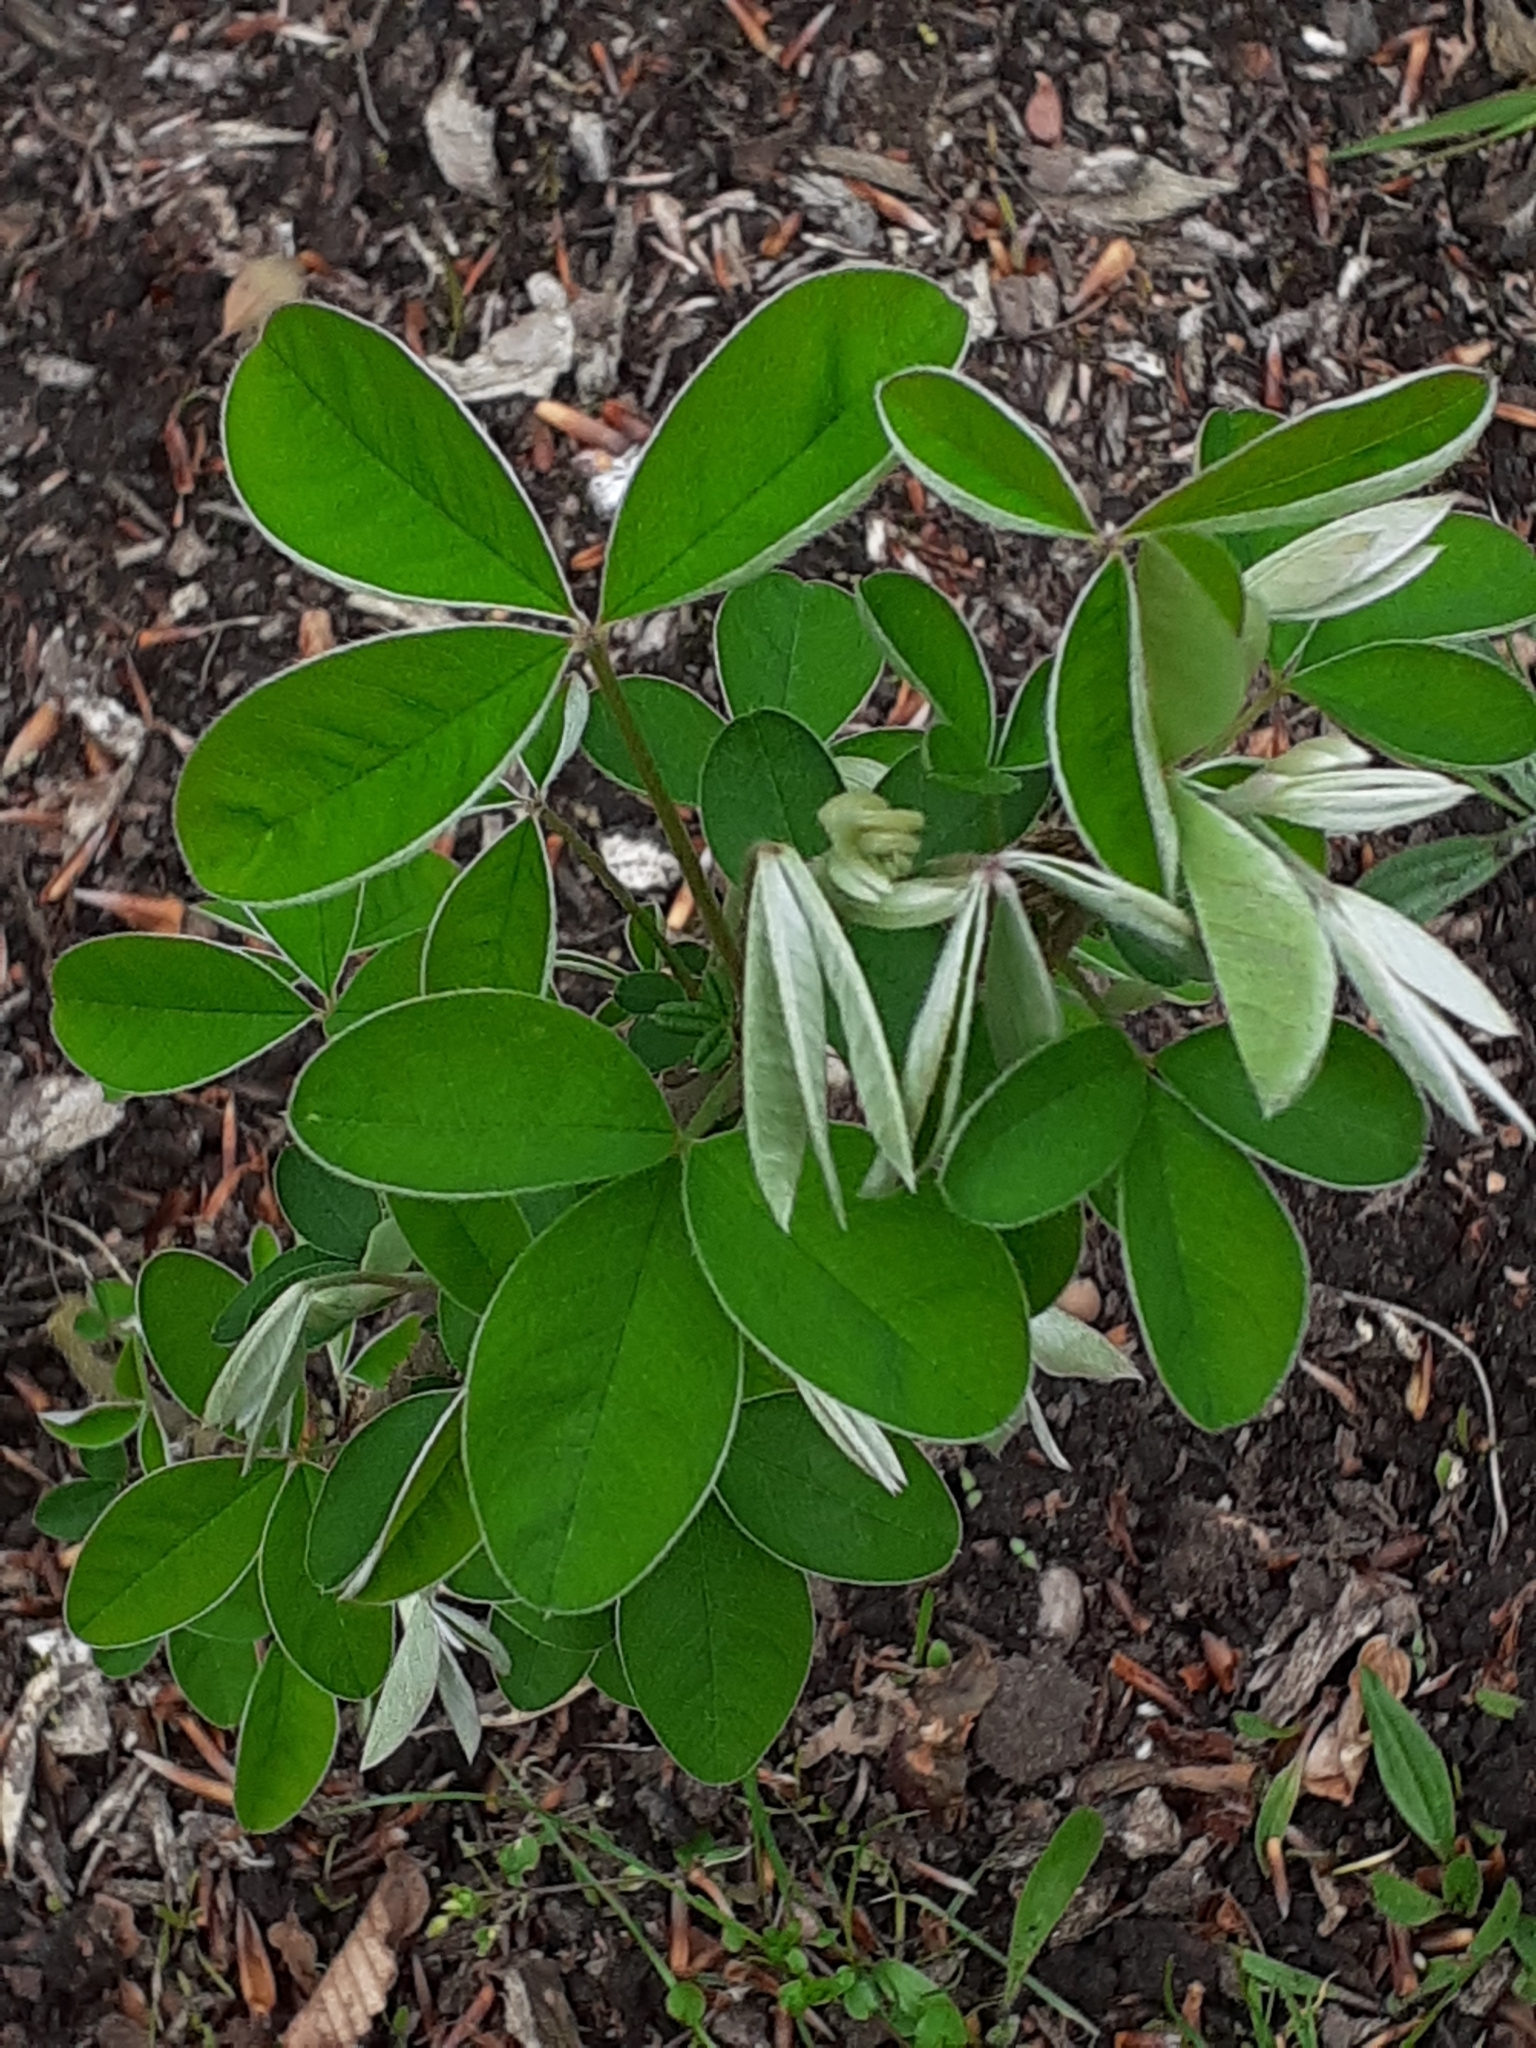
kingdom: Plantae
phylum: Tracheophyta
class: Magnoliopsida
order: Fabales
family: Fabaceae
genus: Laburnum
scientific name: Laburnum anagyroides
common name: Laburnum
